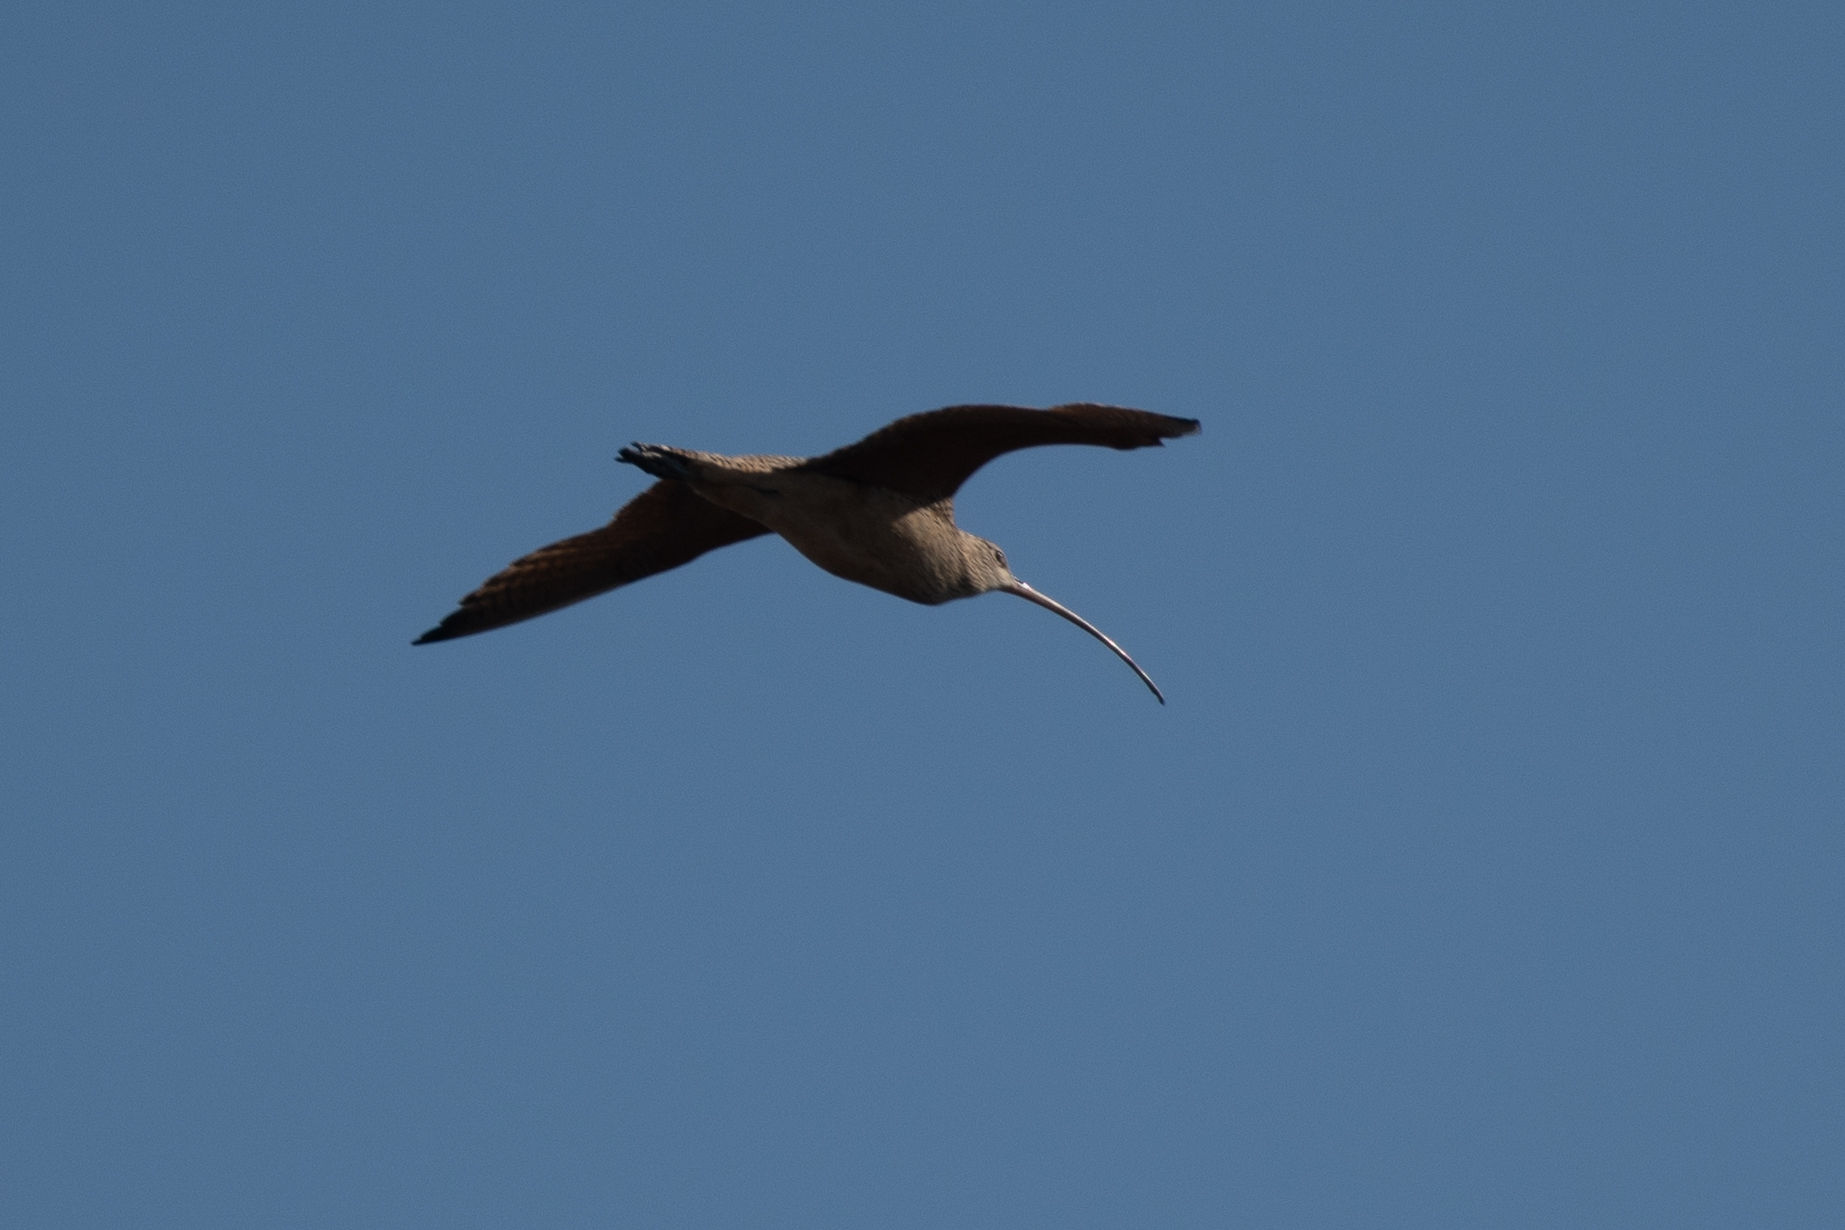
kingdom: Animalia
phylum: Chordata
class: Aves
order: Charadriiformes
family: Scolopacidae
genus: Numenius
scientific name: Numenius americanus
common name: Long-billed curlew
